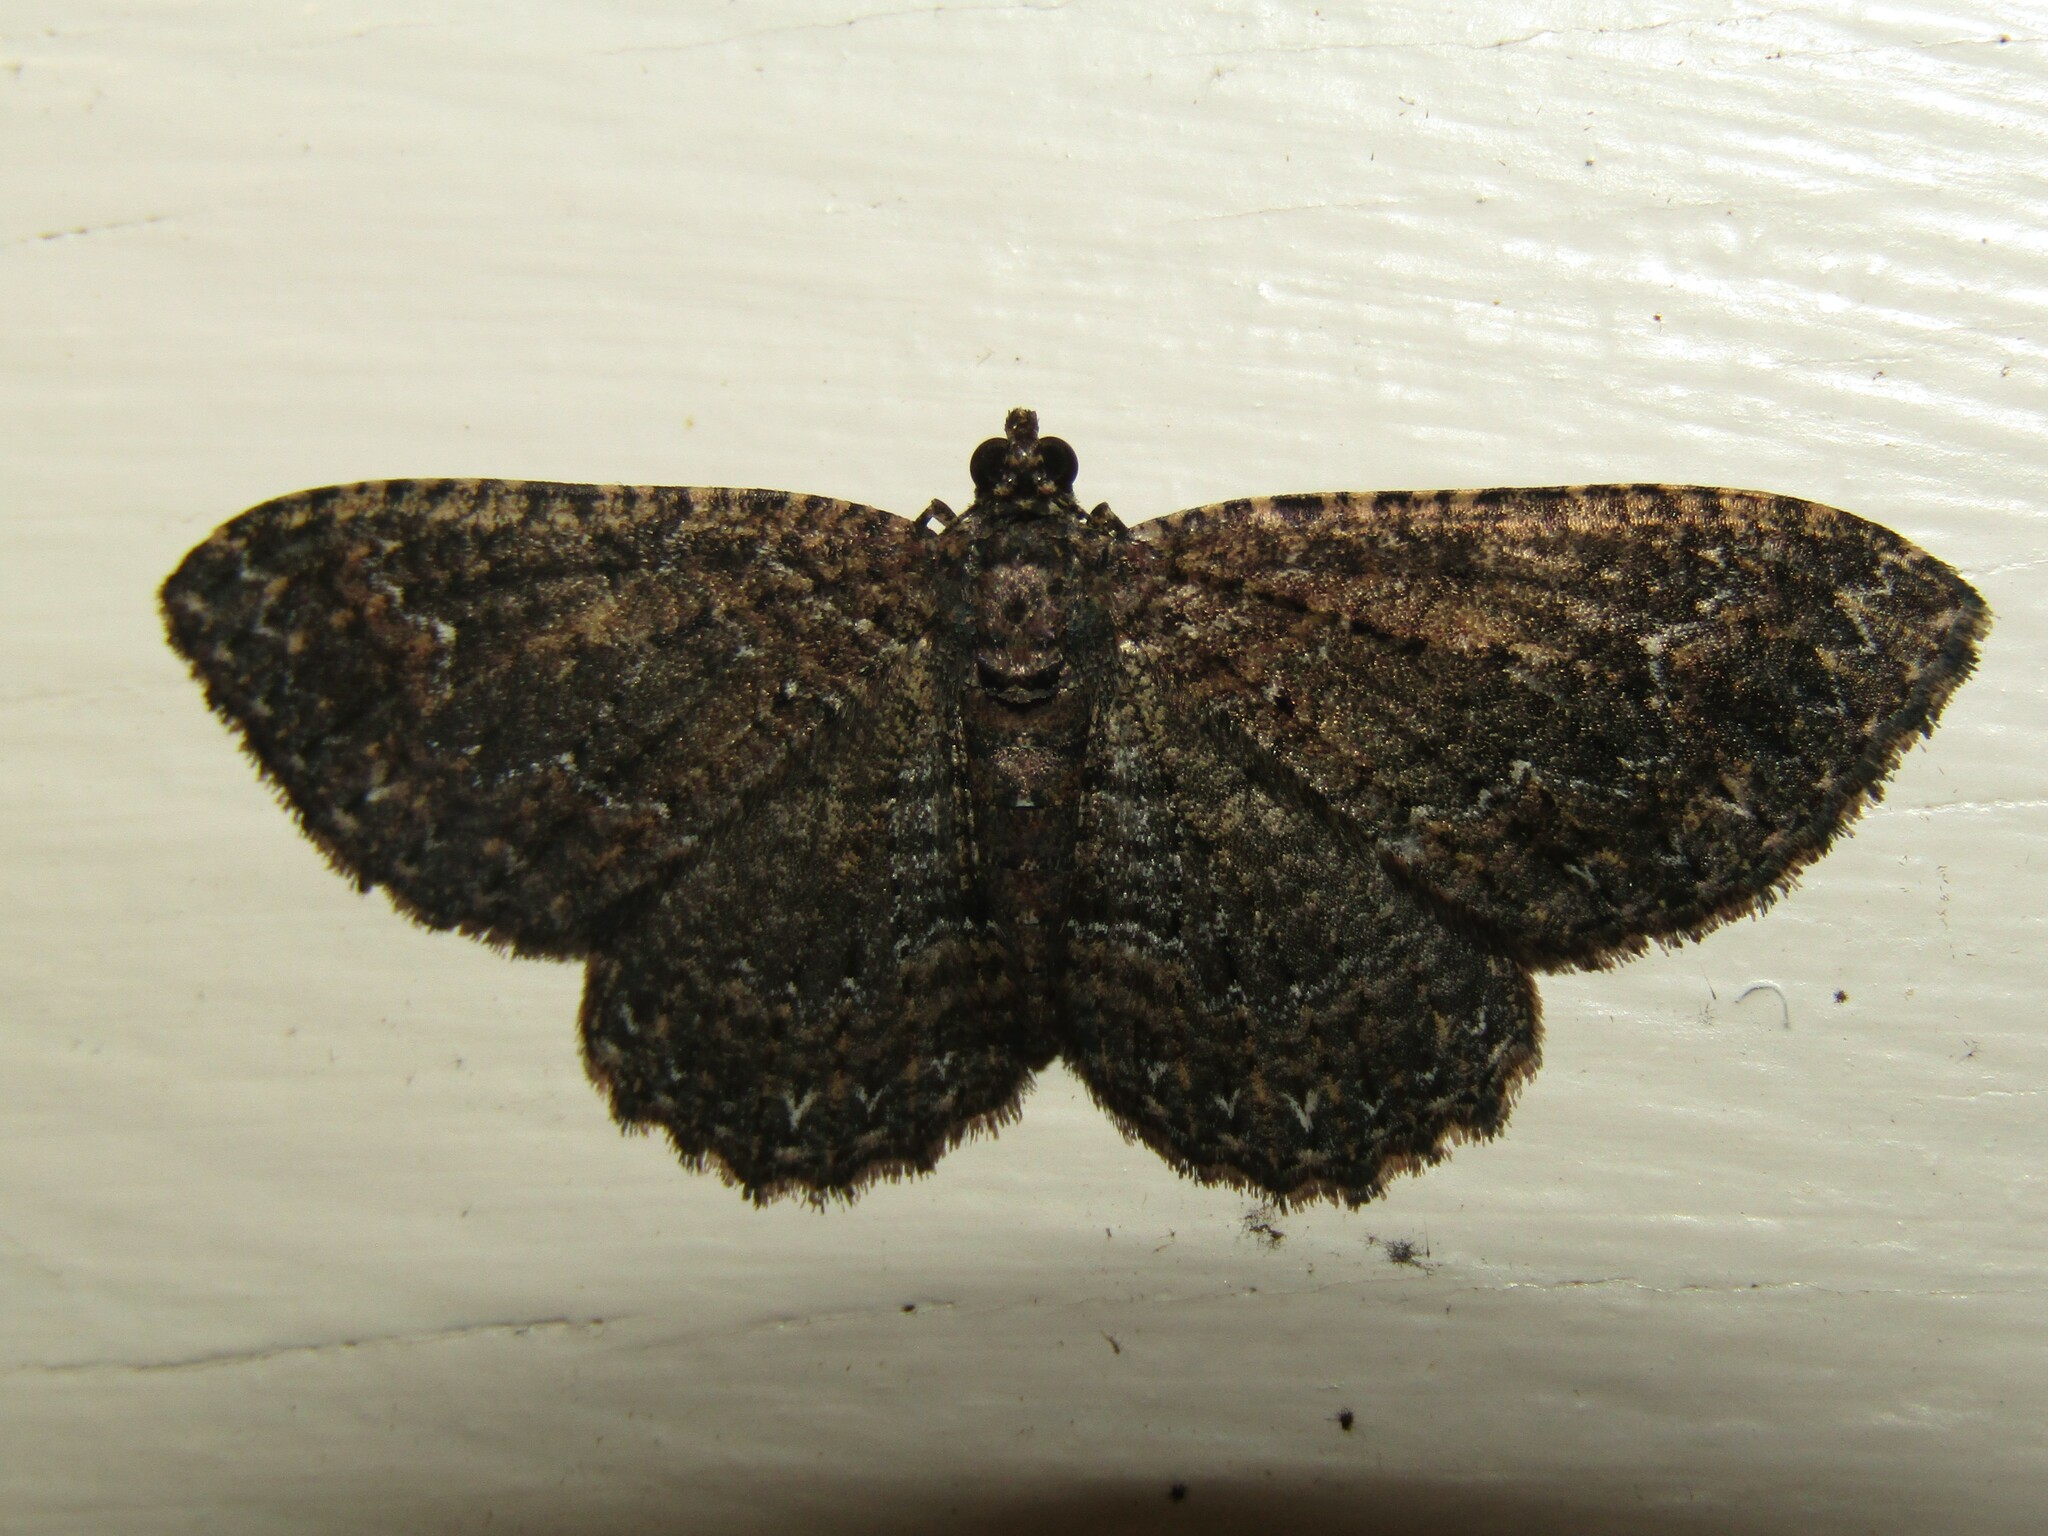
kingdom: Animalia
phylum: Arthropoda
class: Insecta
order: Lepidoptera
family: Geometridae
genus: Disclisioprocta
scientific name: Disclisioprocta stellata
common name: Somber carpet
